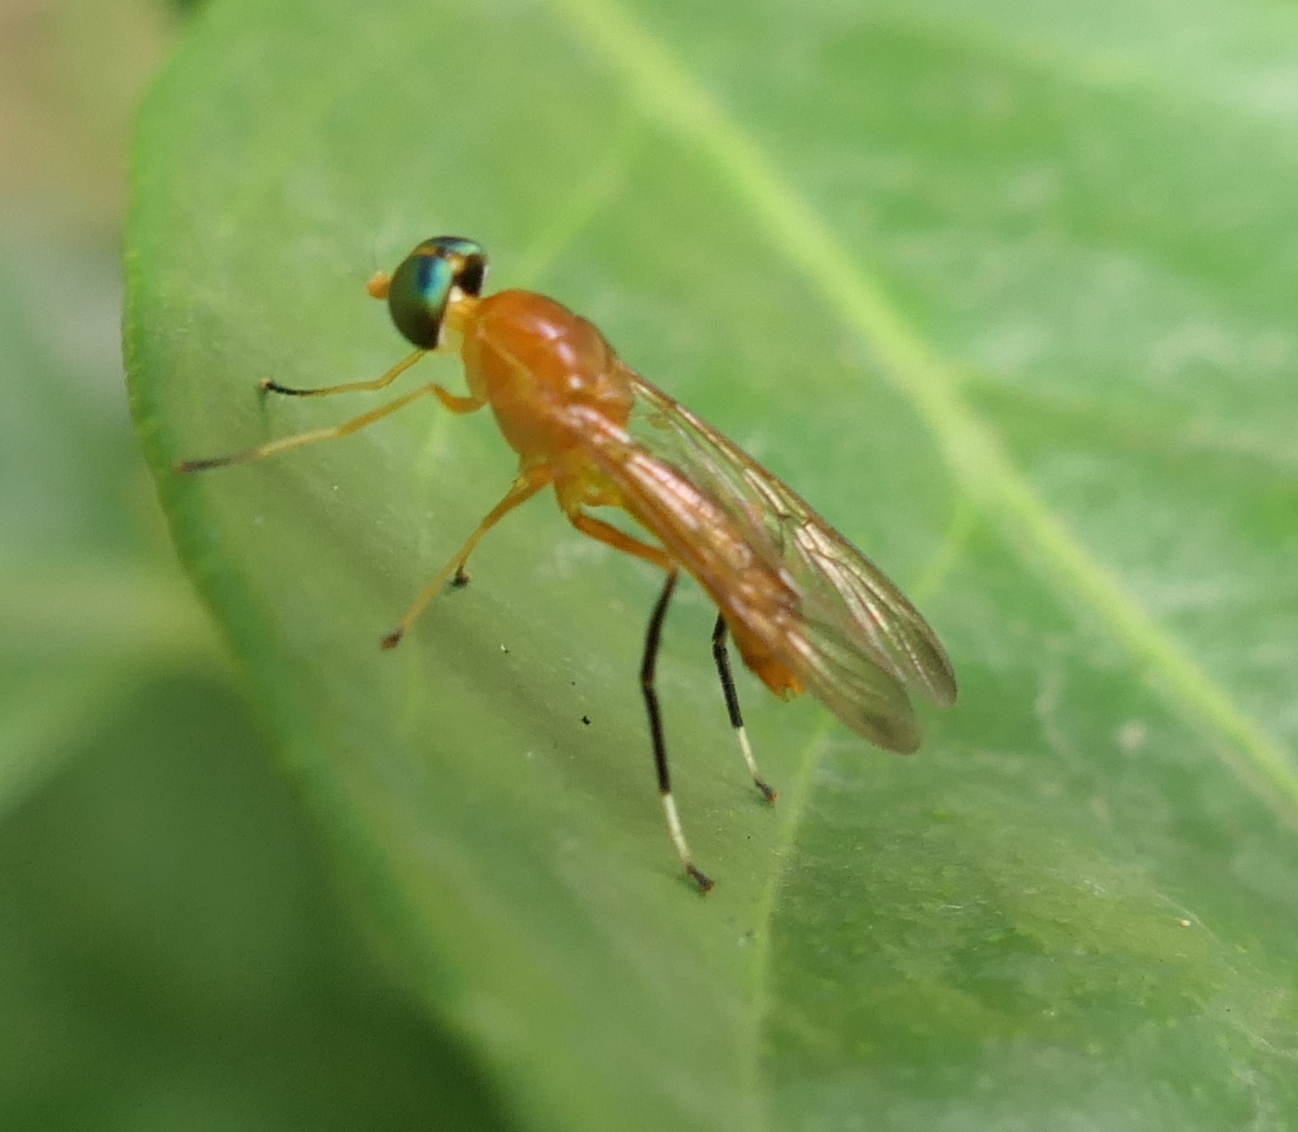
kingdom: Animalia
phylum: Arthropoda
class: Insecta
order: Diptera
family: Stratiomyidae
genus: Ptecticus
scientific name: Ptecticus testaceus
